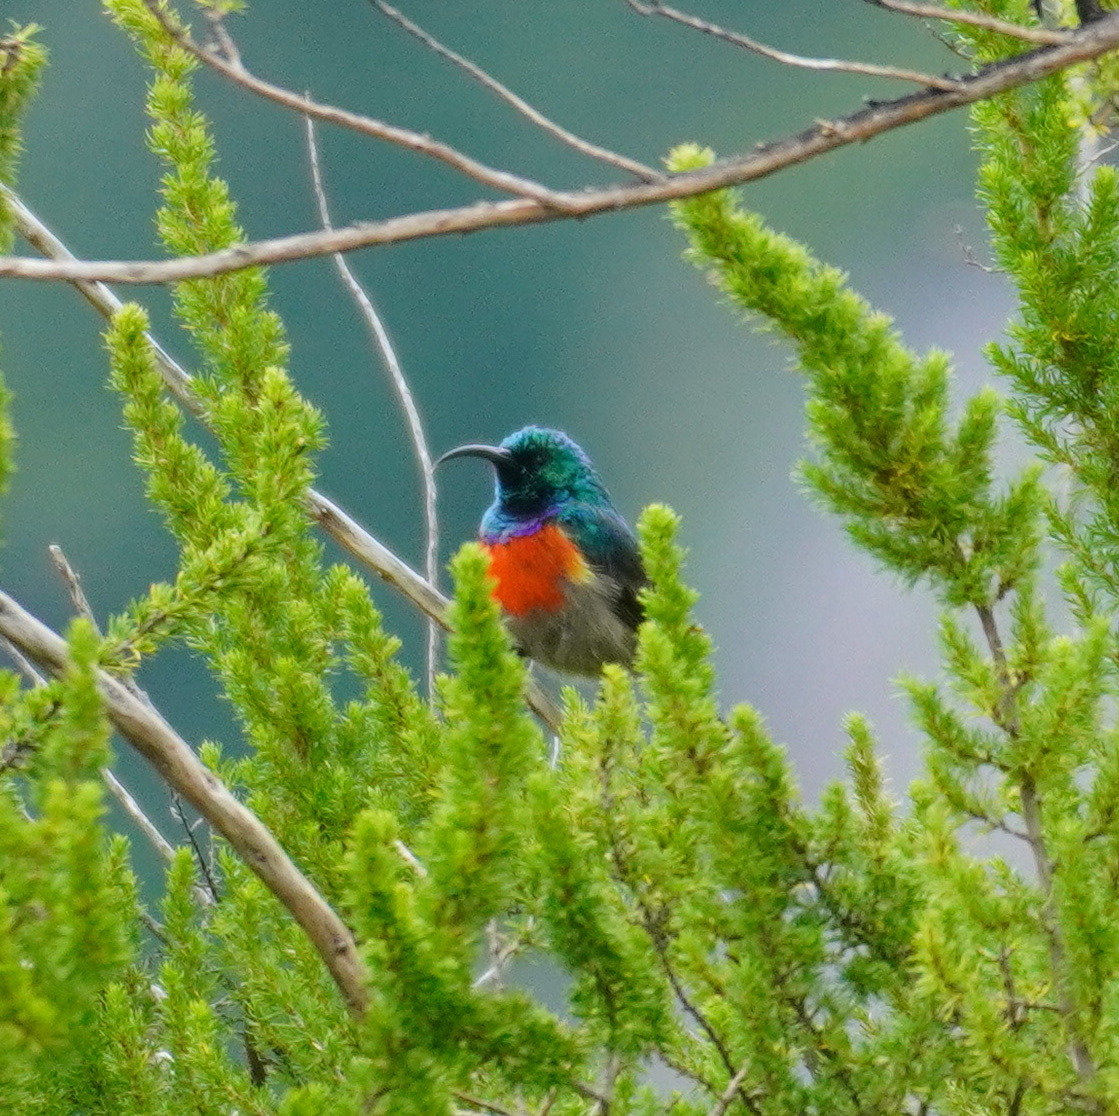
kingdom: Animalia
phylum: Chordata
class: Aves
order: Passeriformes
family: Nectariniidae
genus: Cinnyris
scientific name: Cinnyris afer
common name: Greater double-collared sunbird
